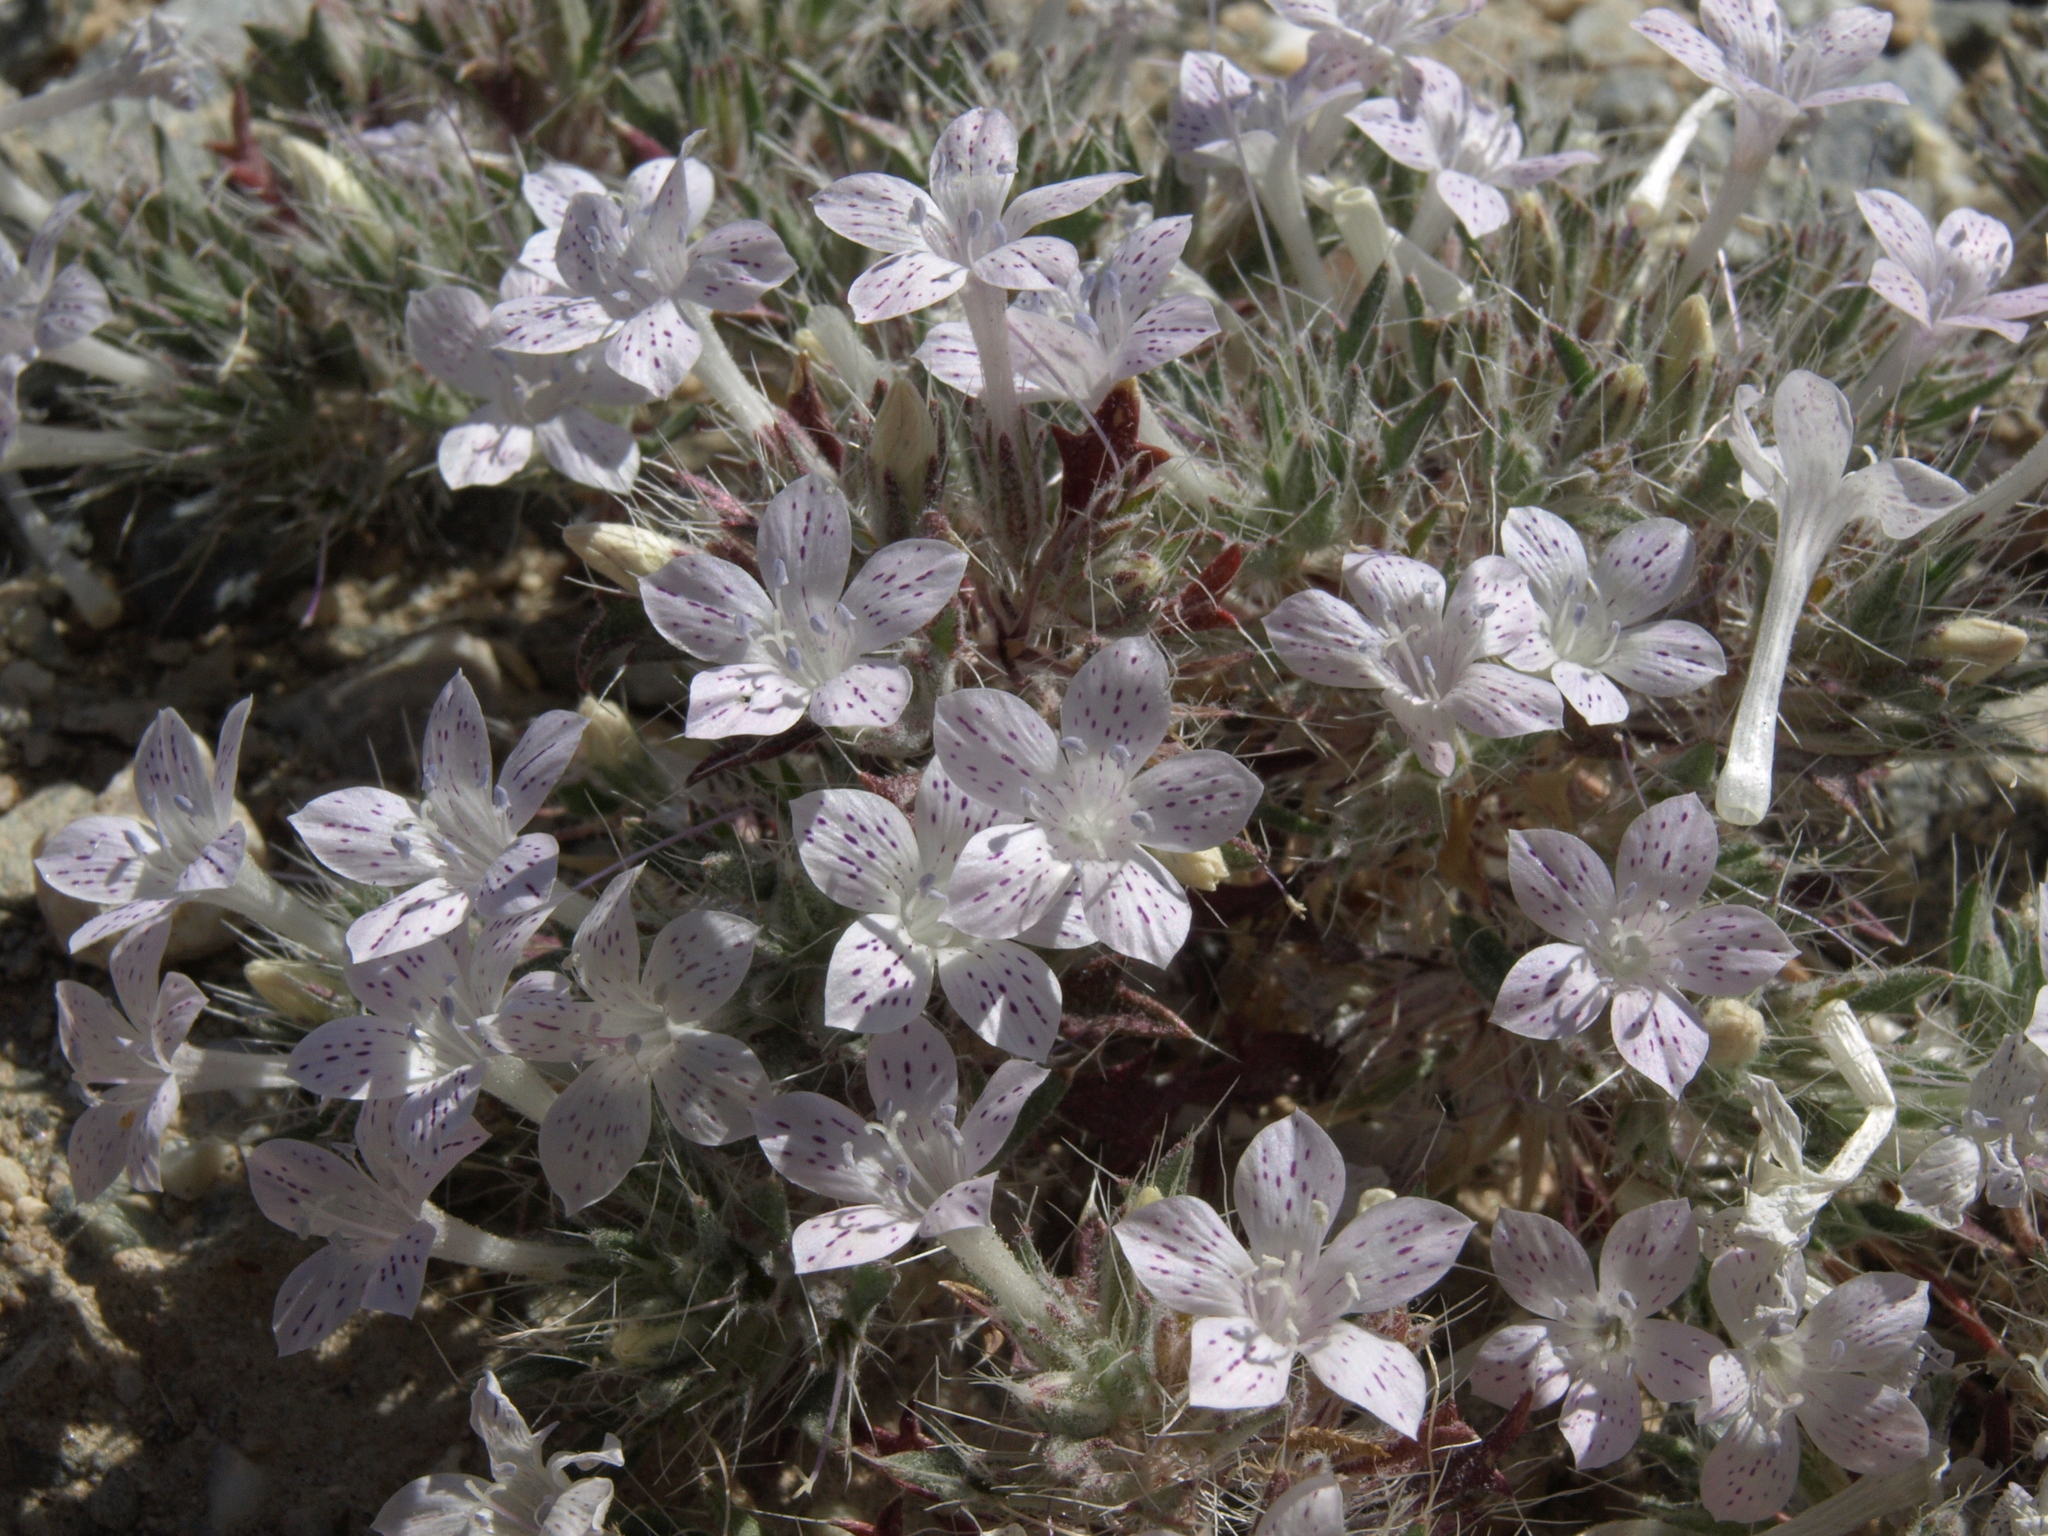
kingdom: Plantae
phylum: Tracheophyta
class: Magnoliopsida
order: Ericales
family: Polemoniaceae
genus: Langloisia
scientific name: Langloisia setosissima
